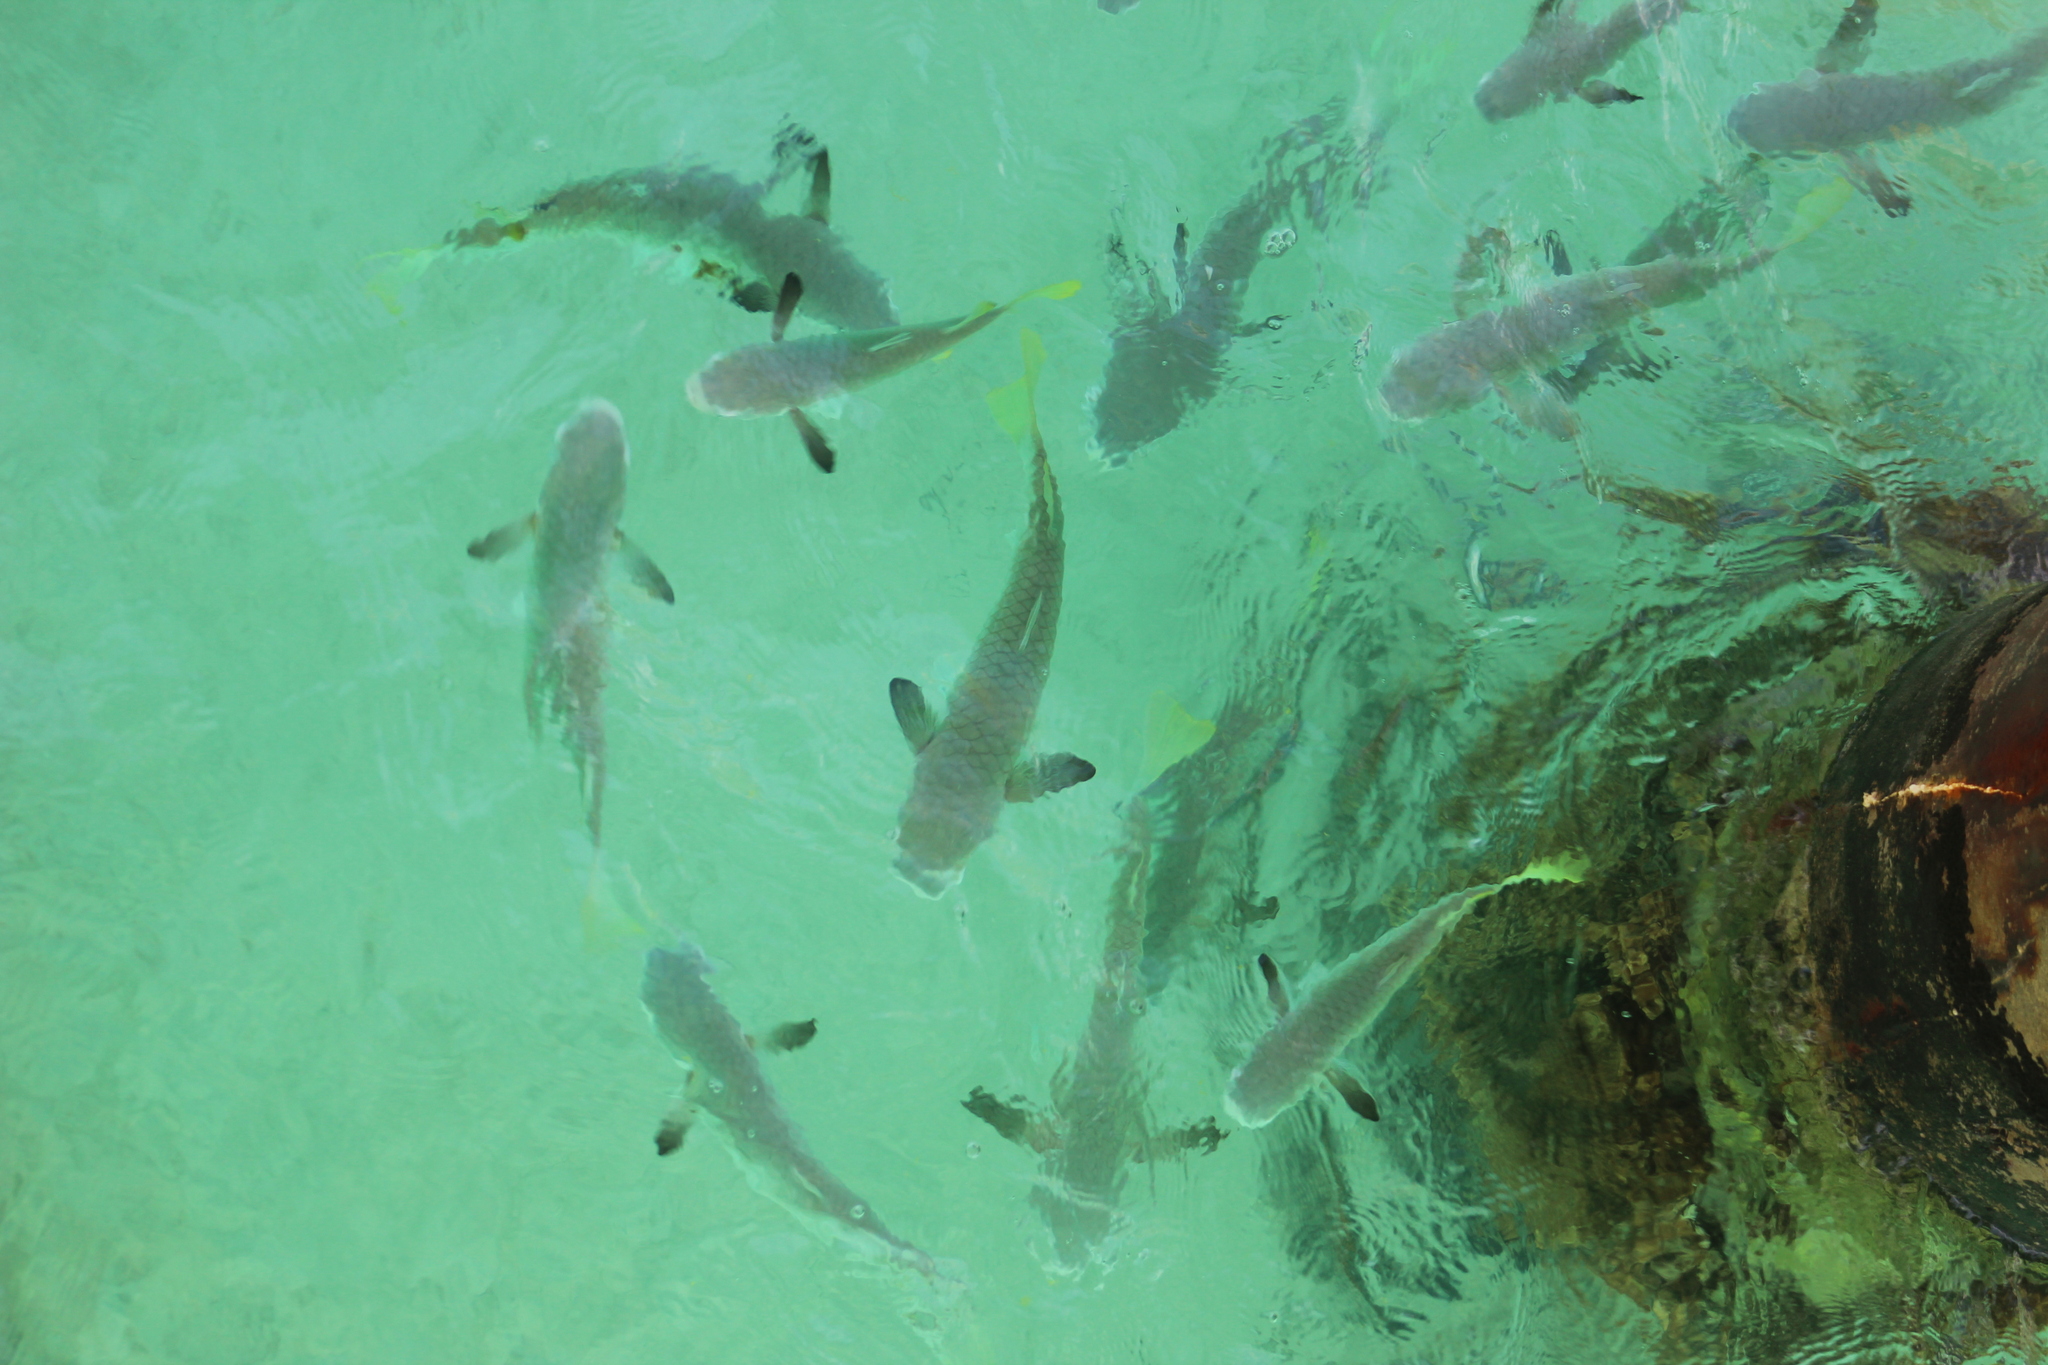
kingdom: Animalia
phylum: Chordata
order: Mugiliformes
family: Mugilidae
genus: Ellochelon
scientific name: Ellochelon vaigiensis
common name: Squaretail mullet
